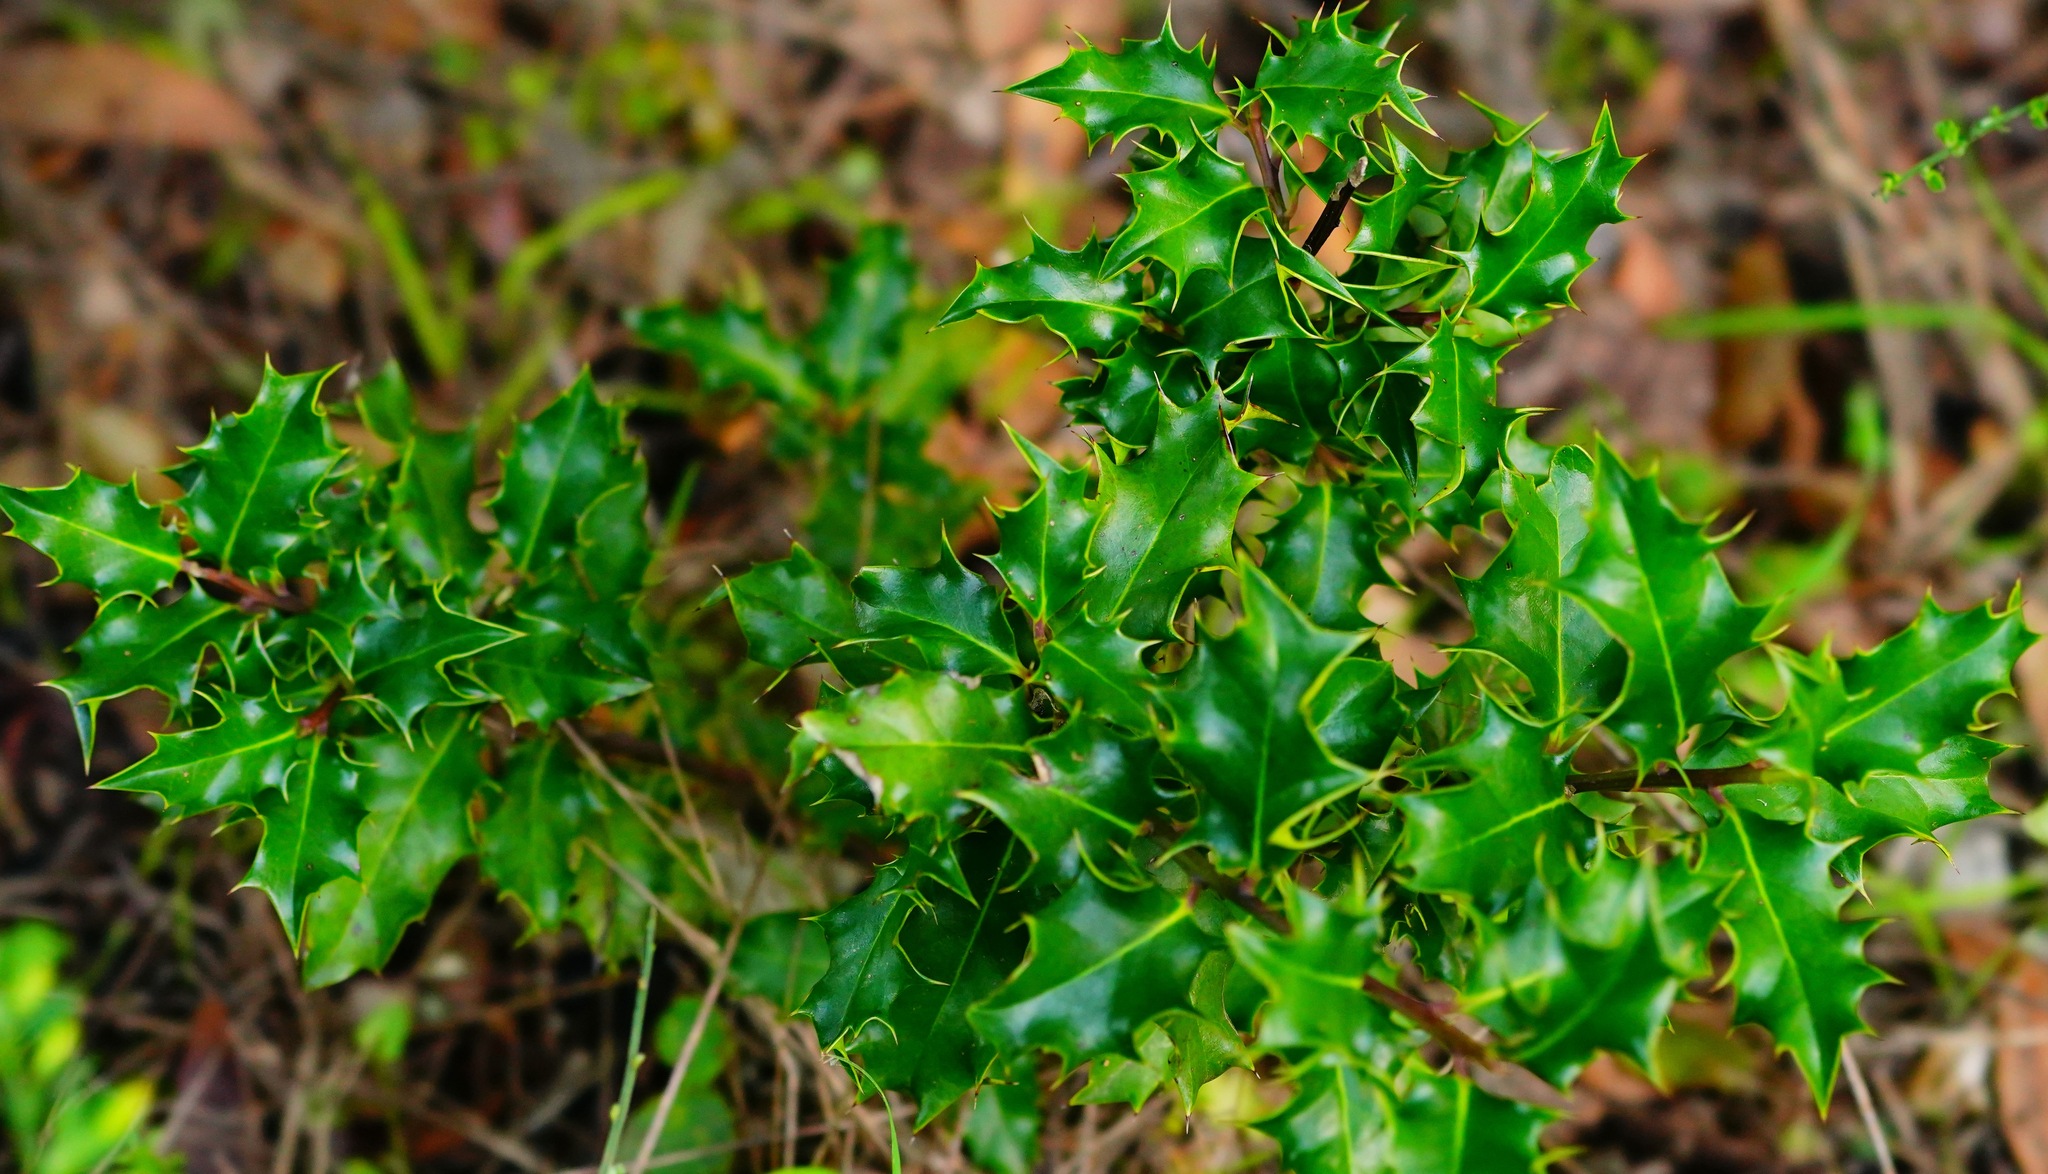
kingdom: Plantae
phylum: Tracheophyta
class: Magnoliopsida
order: Aquifoliales
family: Aquifoliaceae
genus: Ilex
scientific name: Ilex aquifolium
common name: English holly
